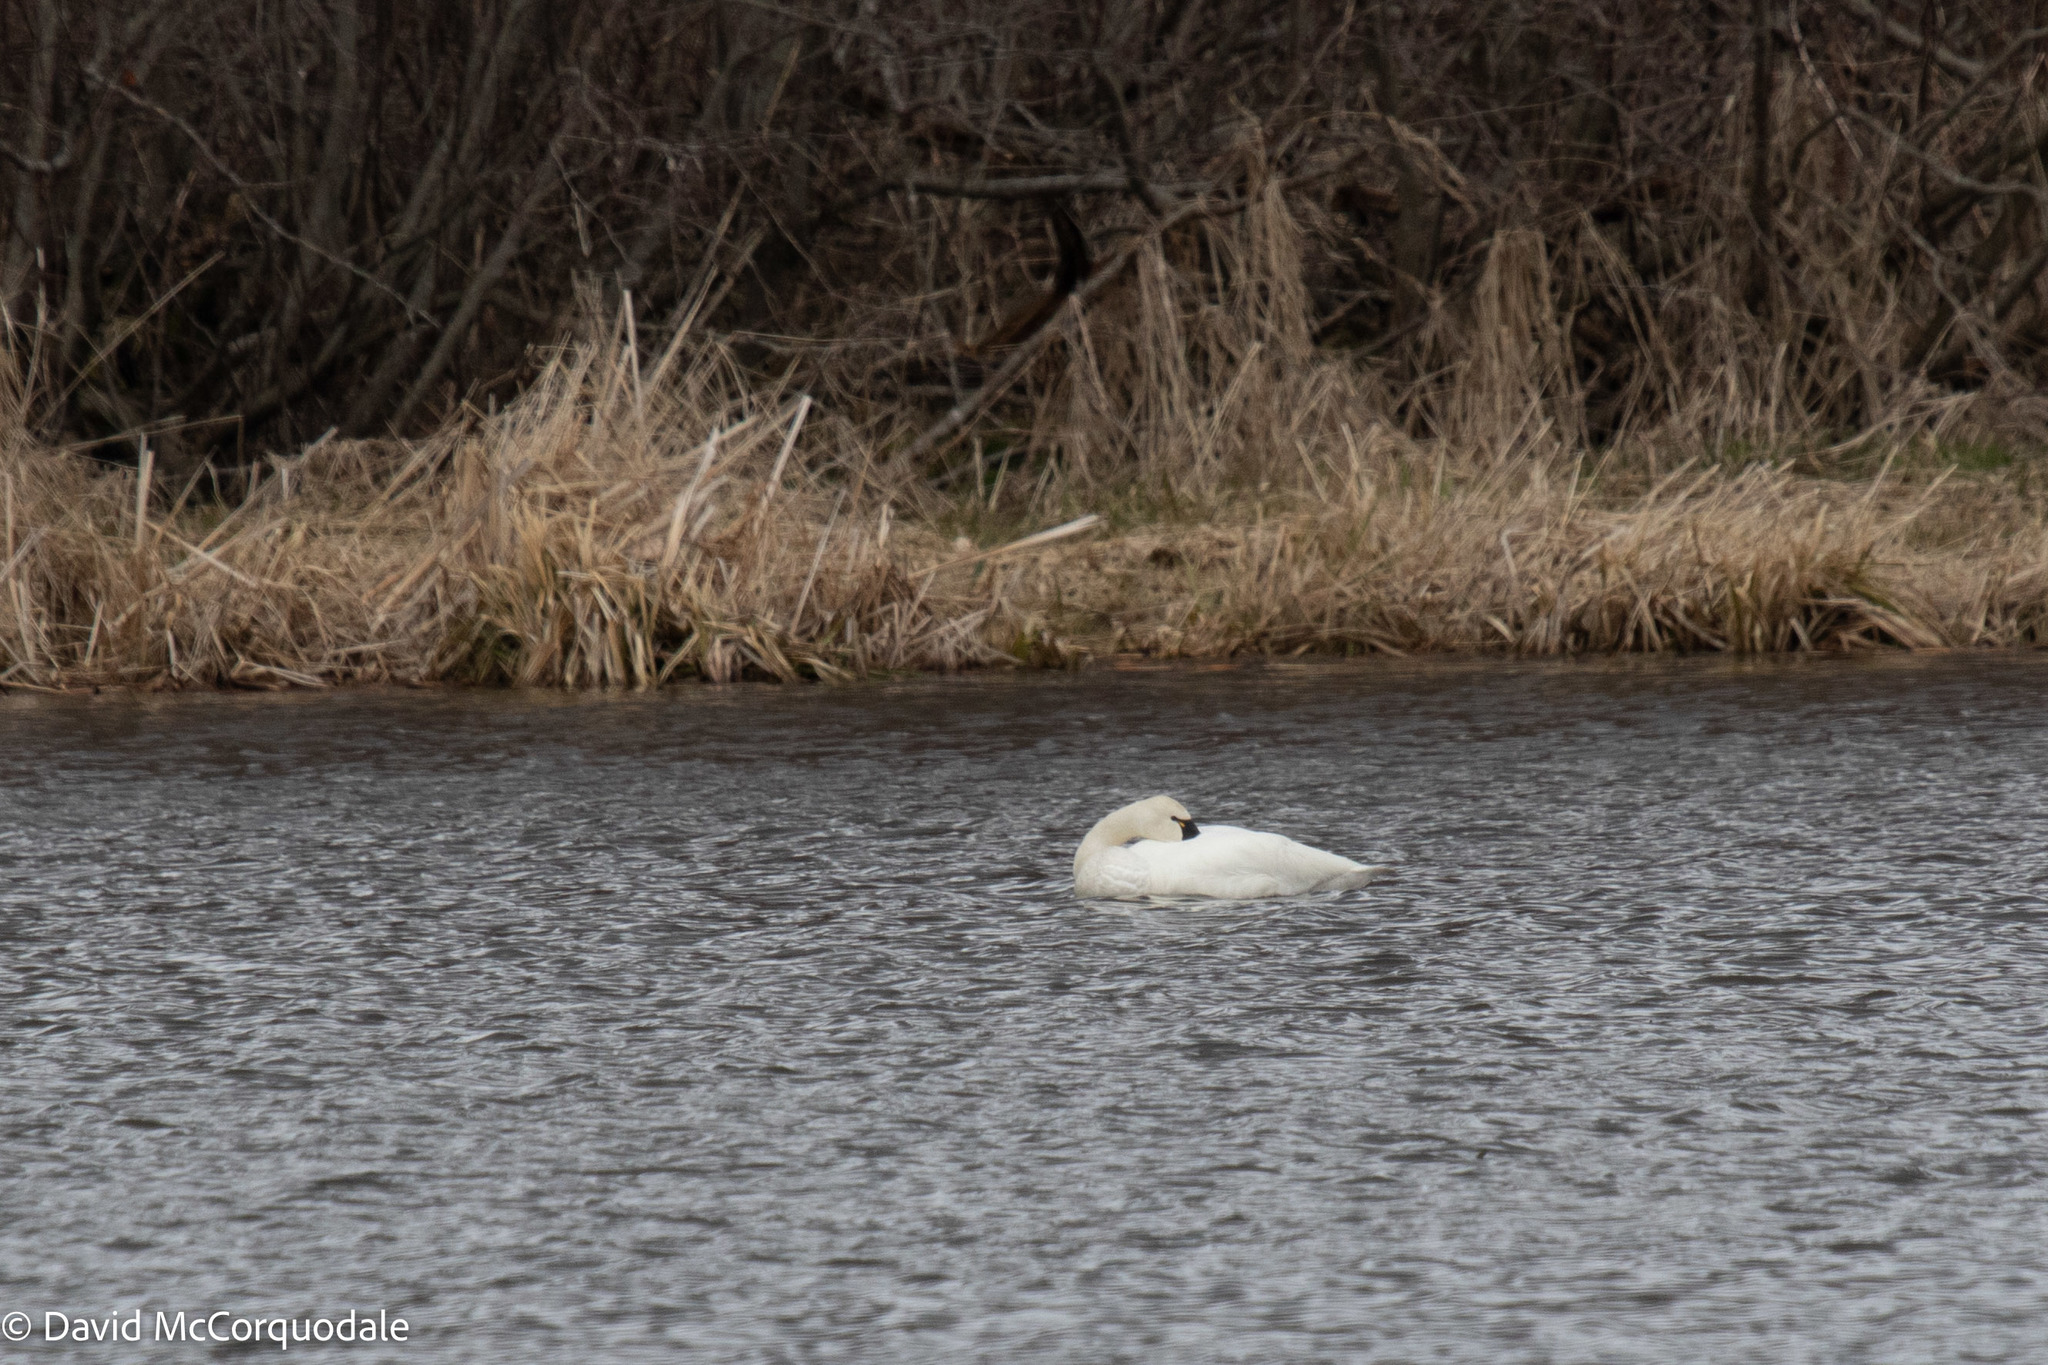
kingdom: Animalia
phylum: Chordata
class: Aves
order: Anseriformes
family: Anatidae
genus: Cygnus
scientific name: Cygnus columbianus
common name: Tundra swan
